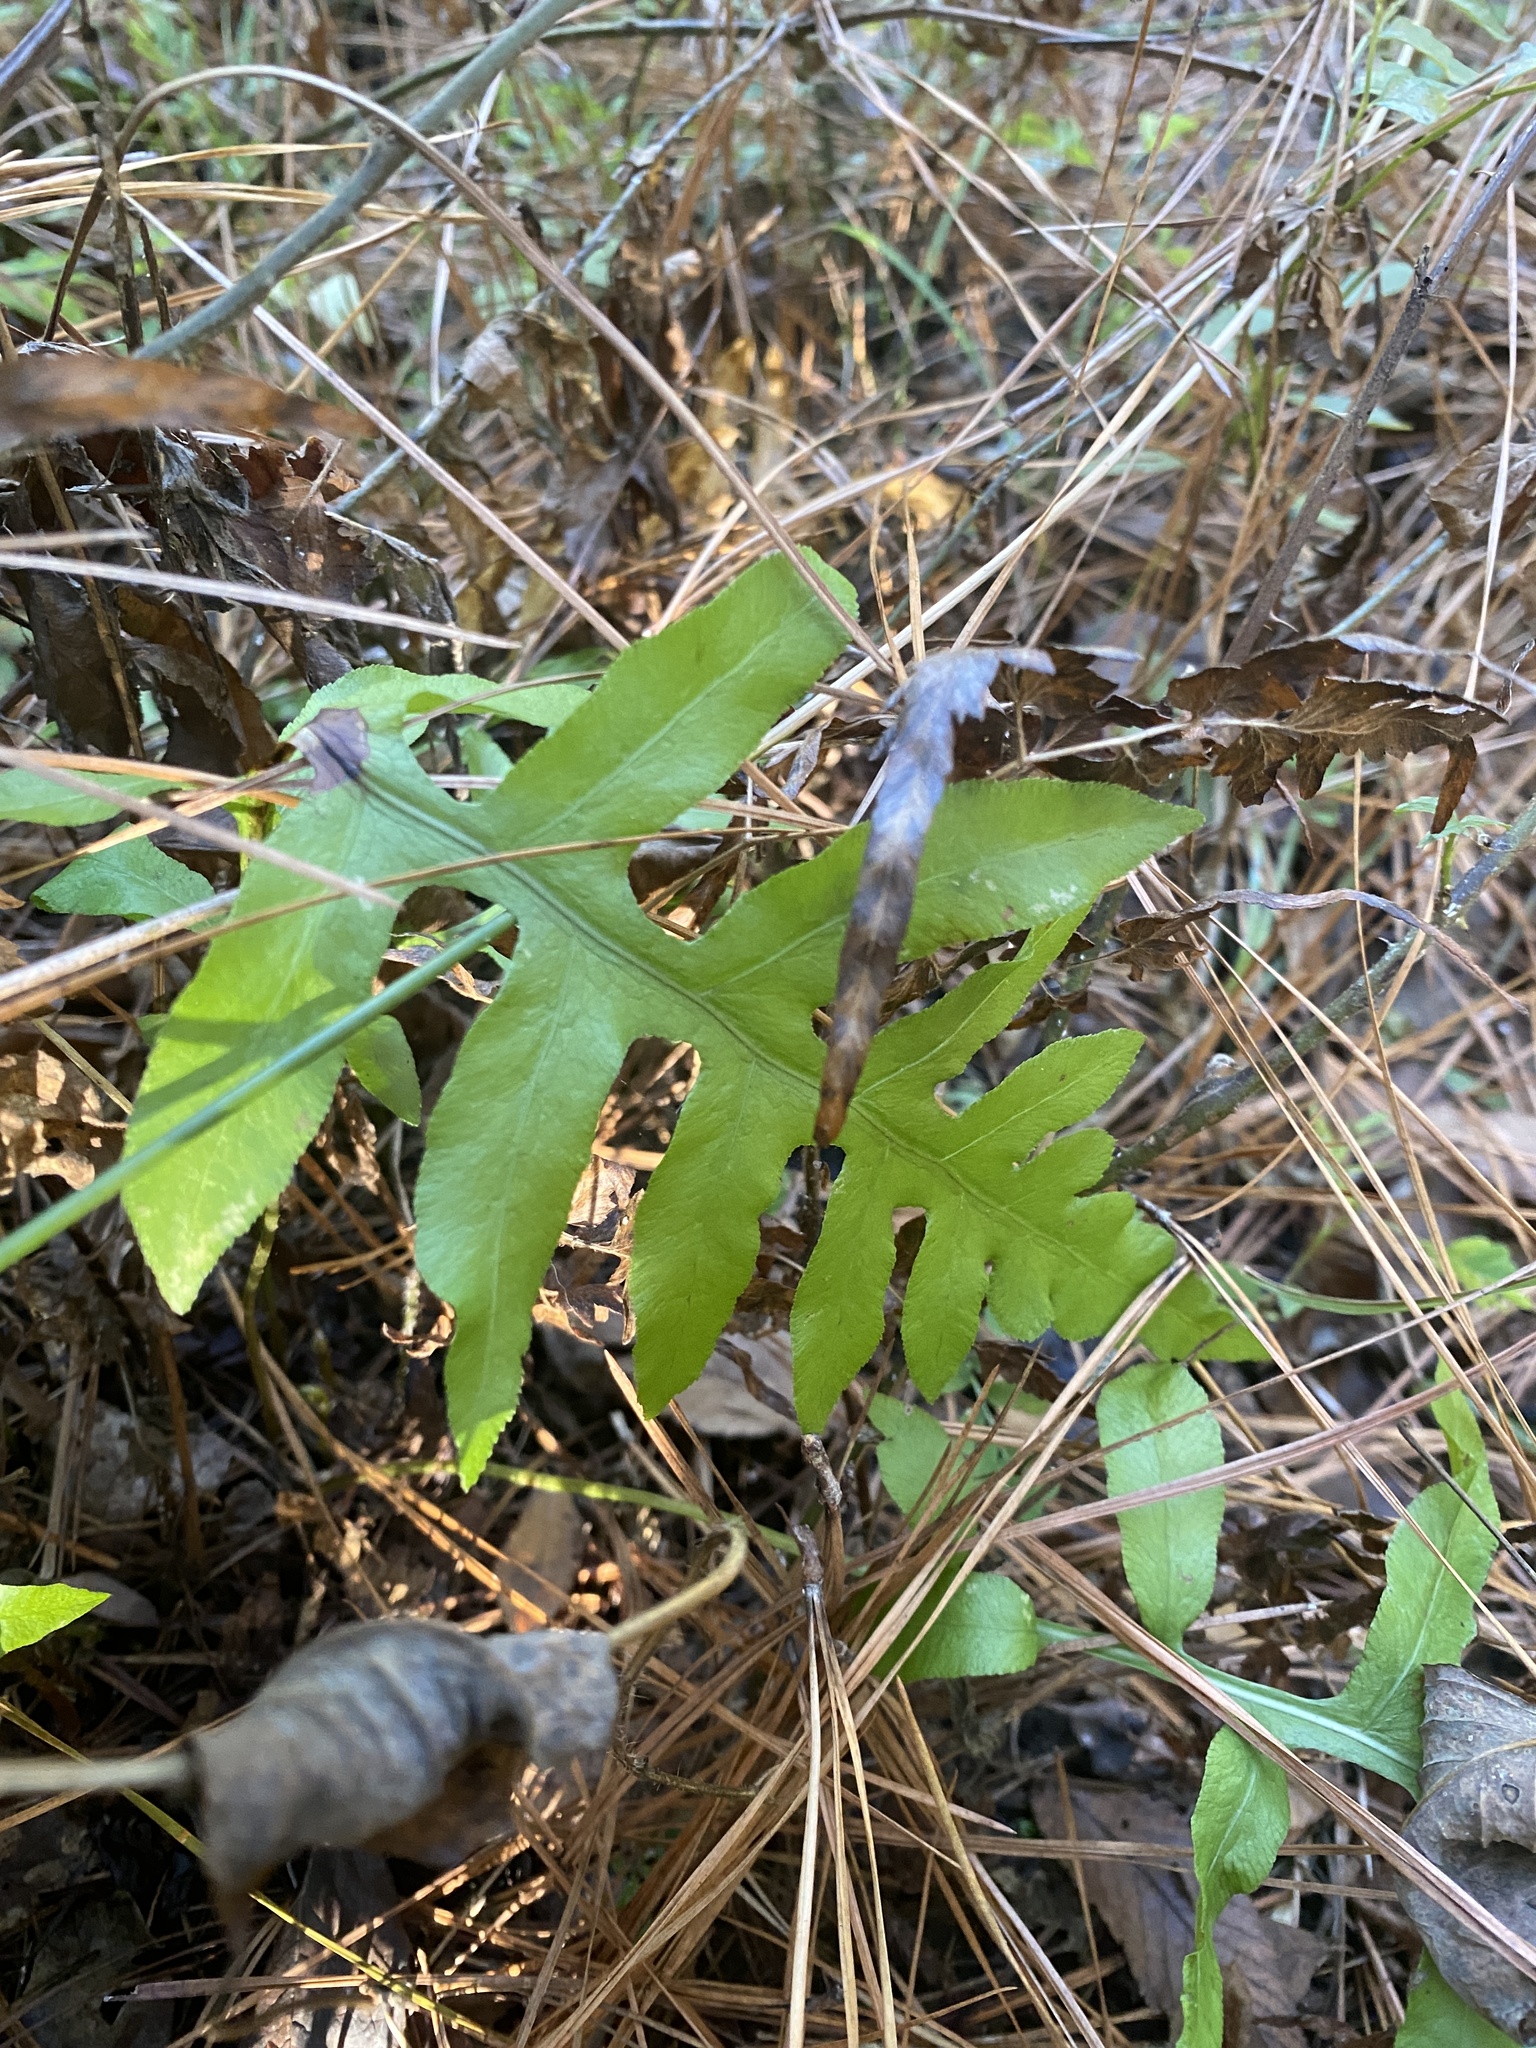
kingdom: Plantae
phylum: Tracheophyta
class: Polypodiopsida
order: Polypodiales
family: Blechnaceae
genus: Lorinseria
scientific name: Lorinseria areolata
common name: Dwarf chain fern
